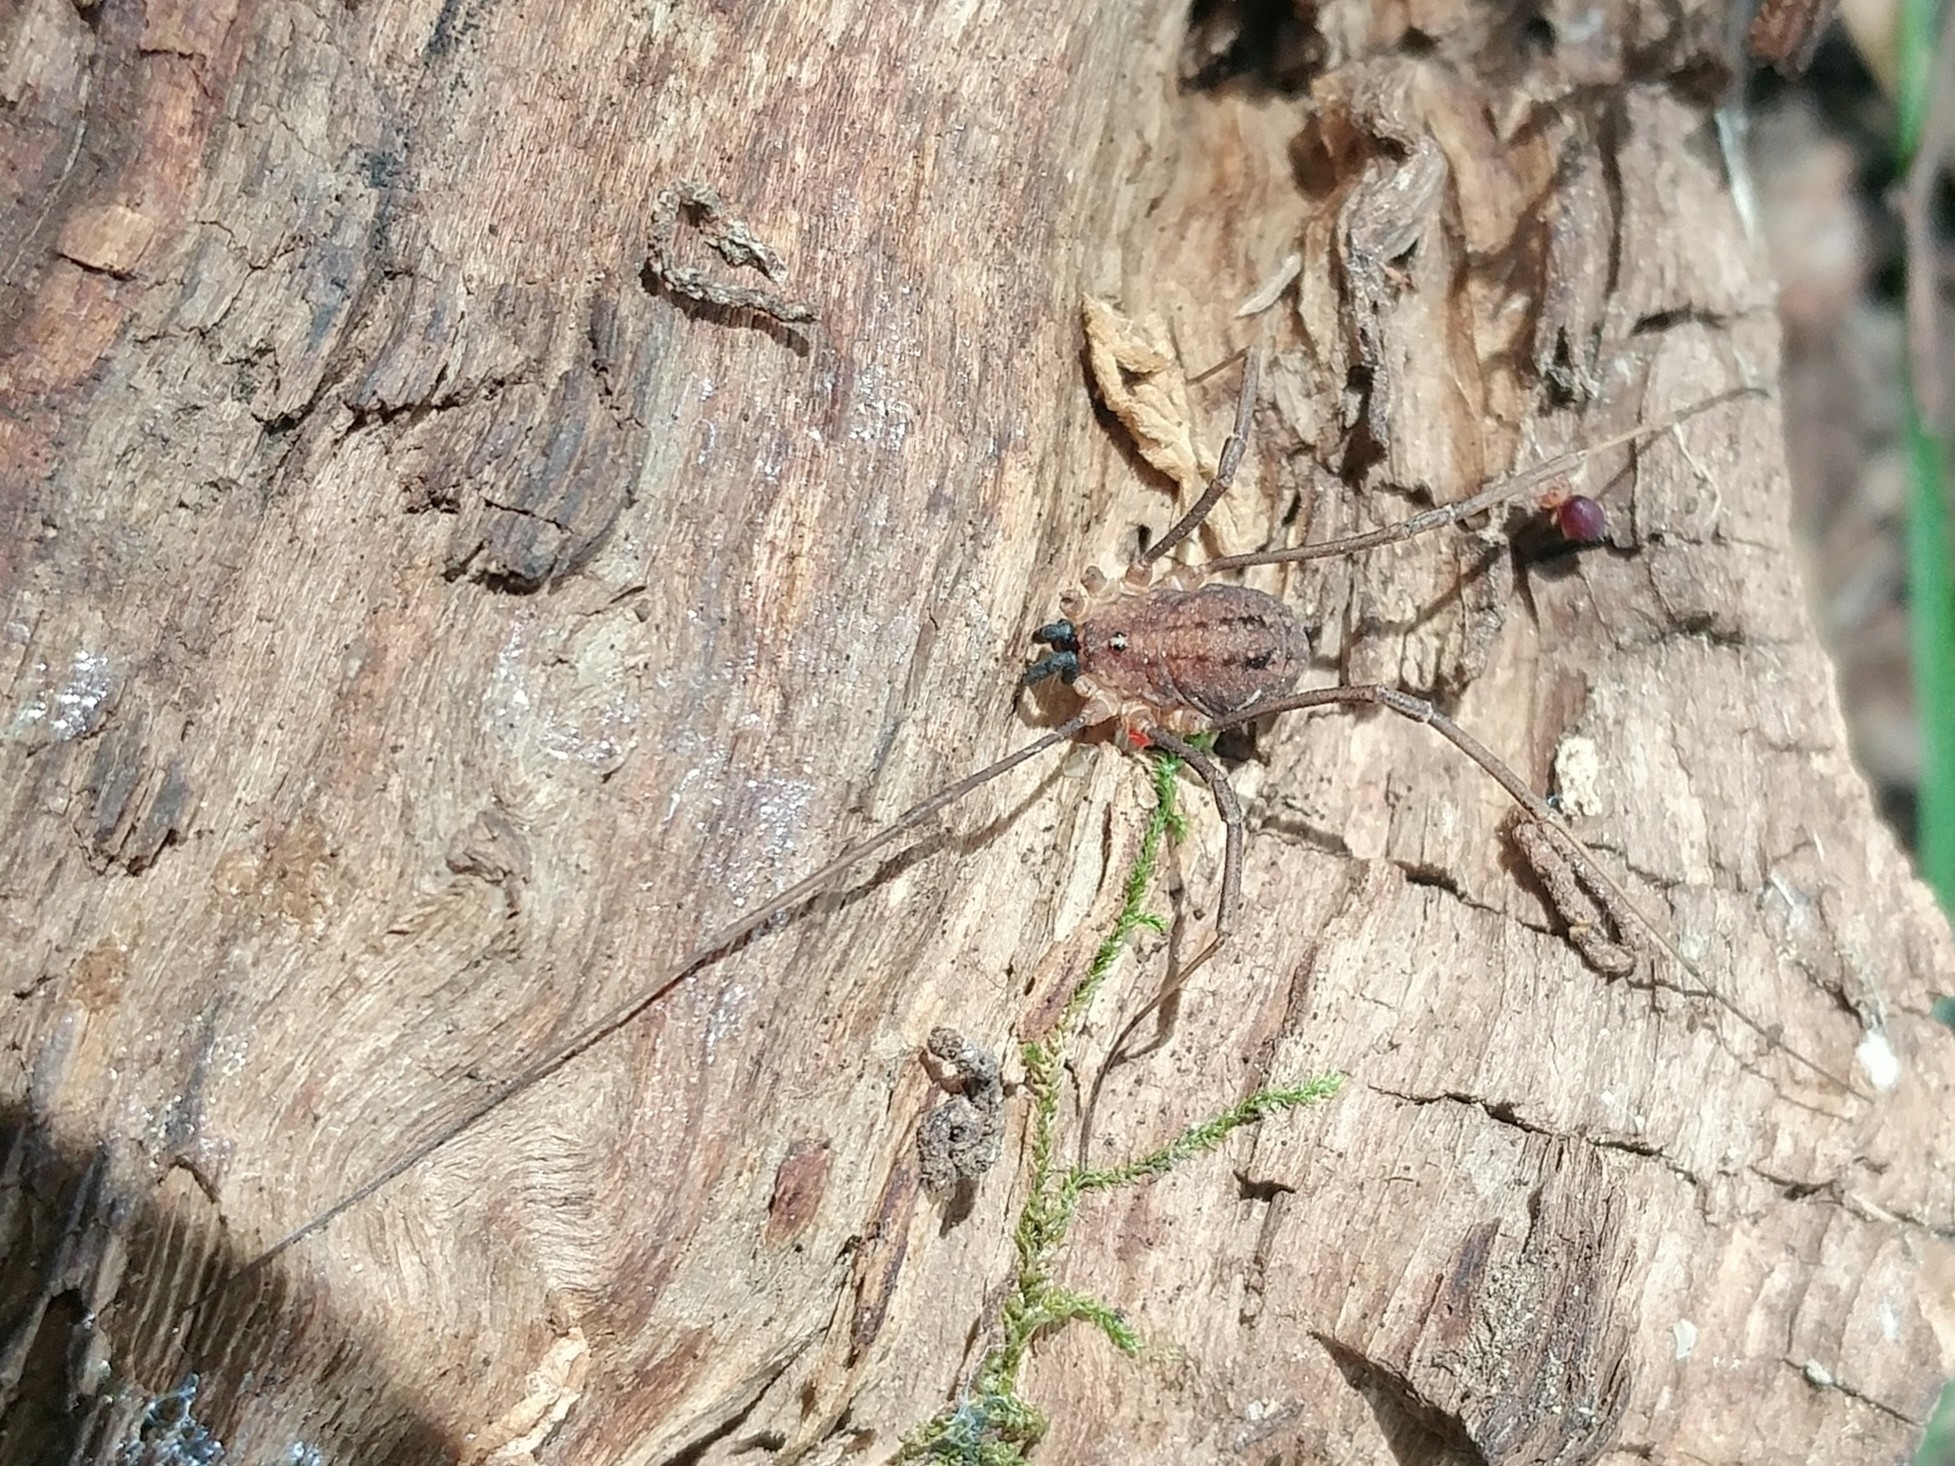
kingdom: Animalia
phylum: Arthropoda
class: Arachnida
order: Opiliones
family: Sclerosomatidae
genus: Togwoteeus
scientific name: Togwoteeus biceps
